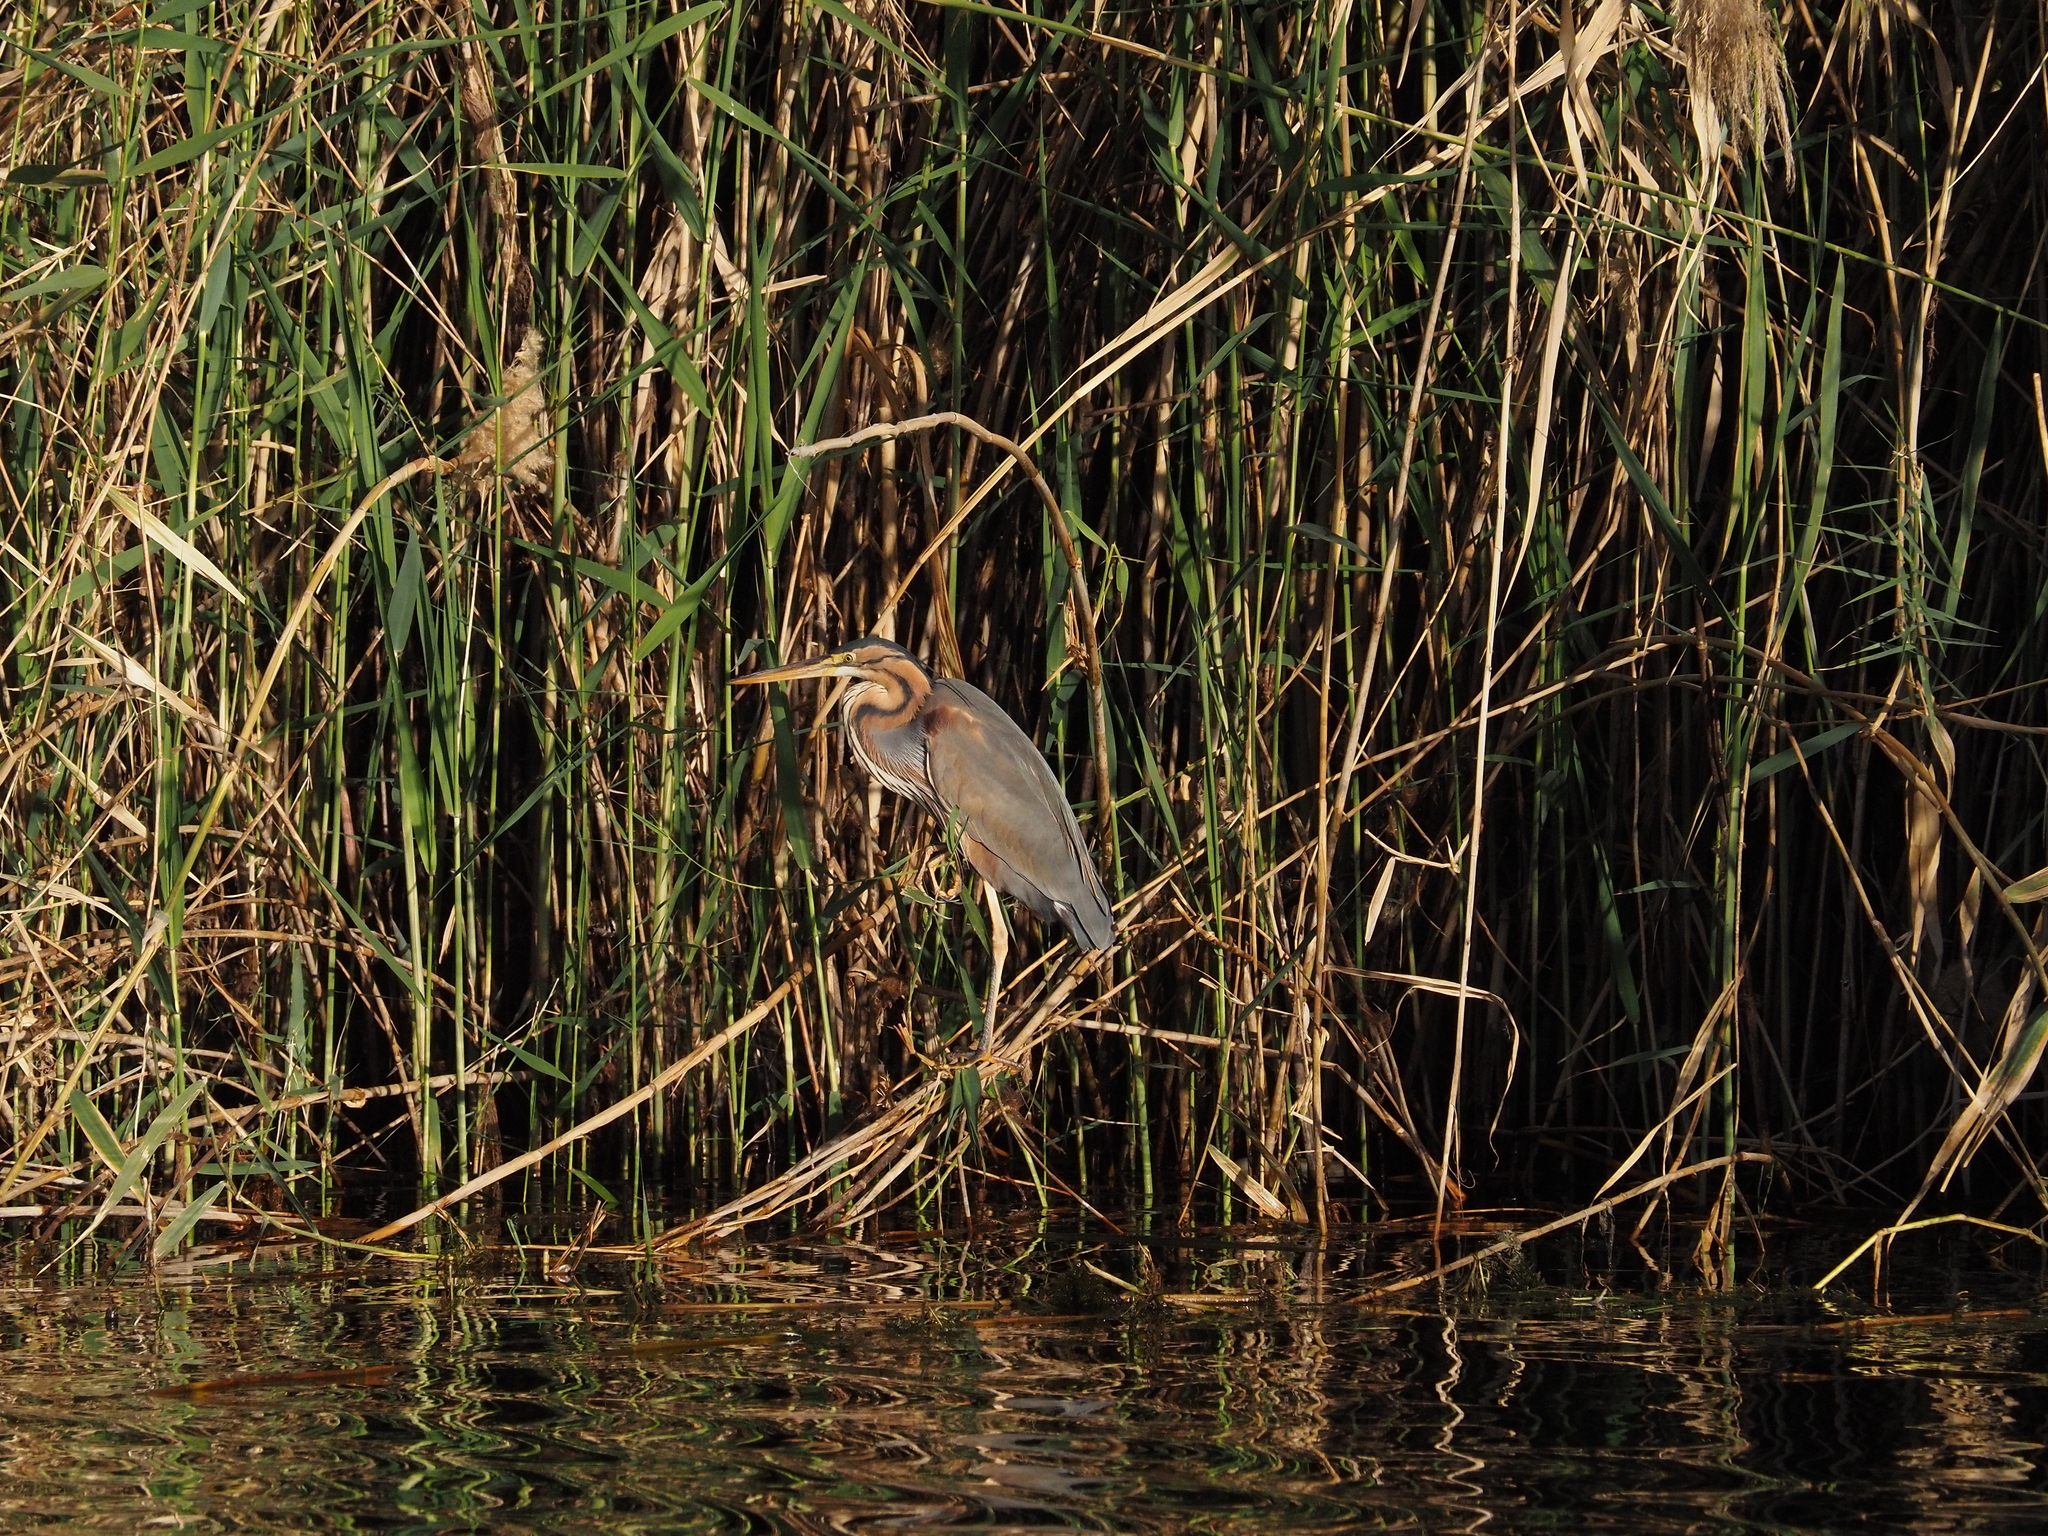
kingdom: Animalia
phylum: Chordata
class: Aves
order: Pelecaniformes
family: Ardeidae
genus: Ardea
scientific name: Ardea purpurea
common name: Purple heron
